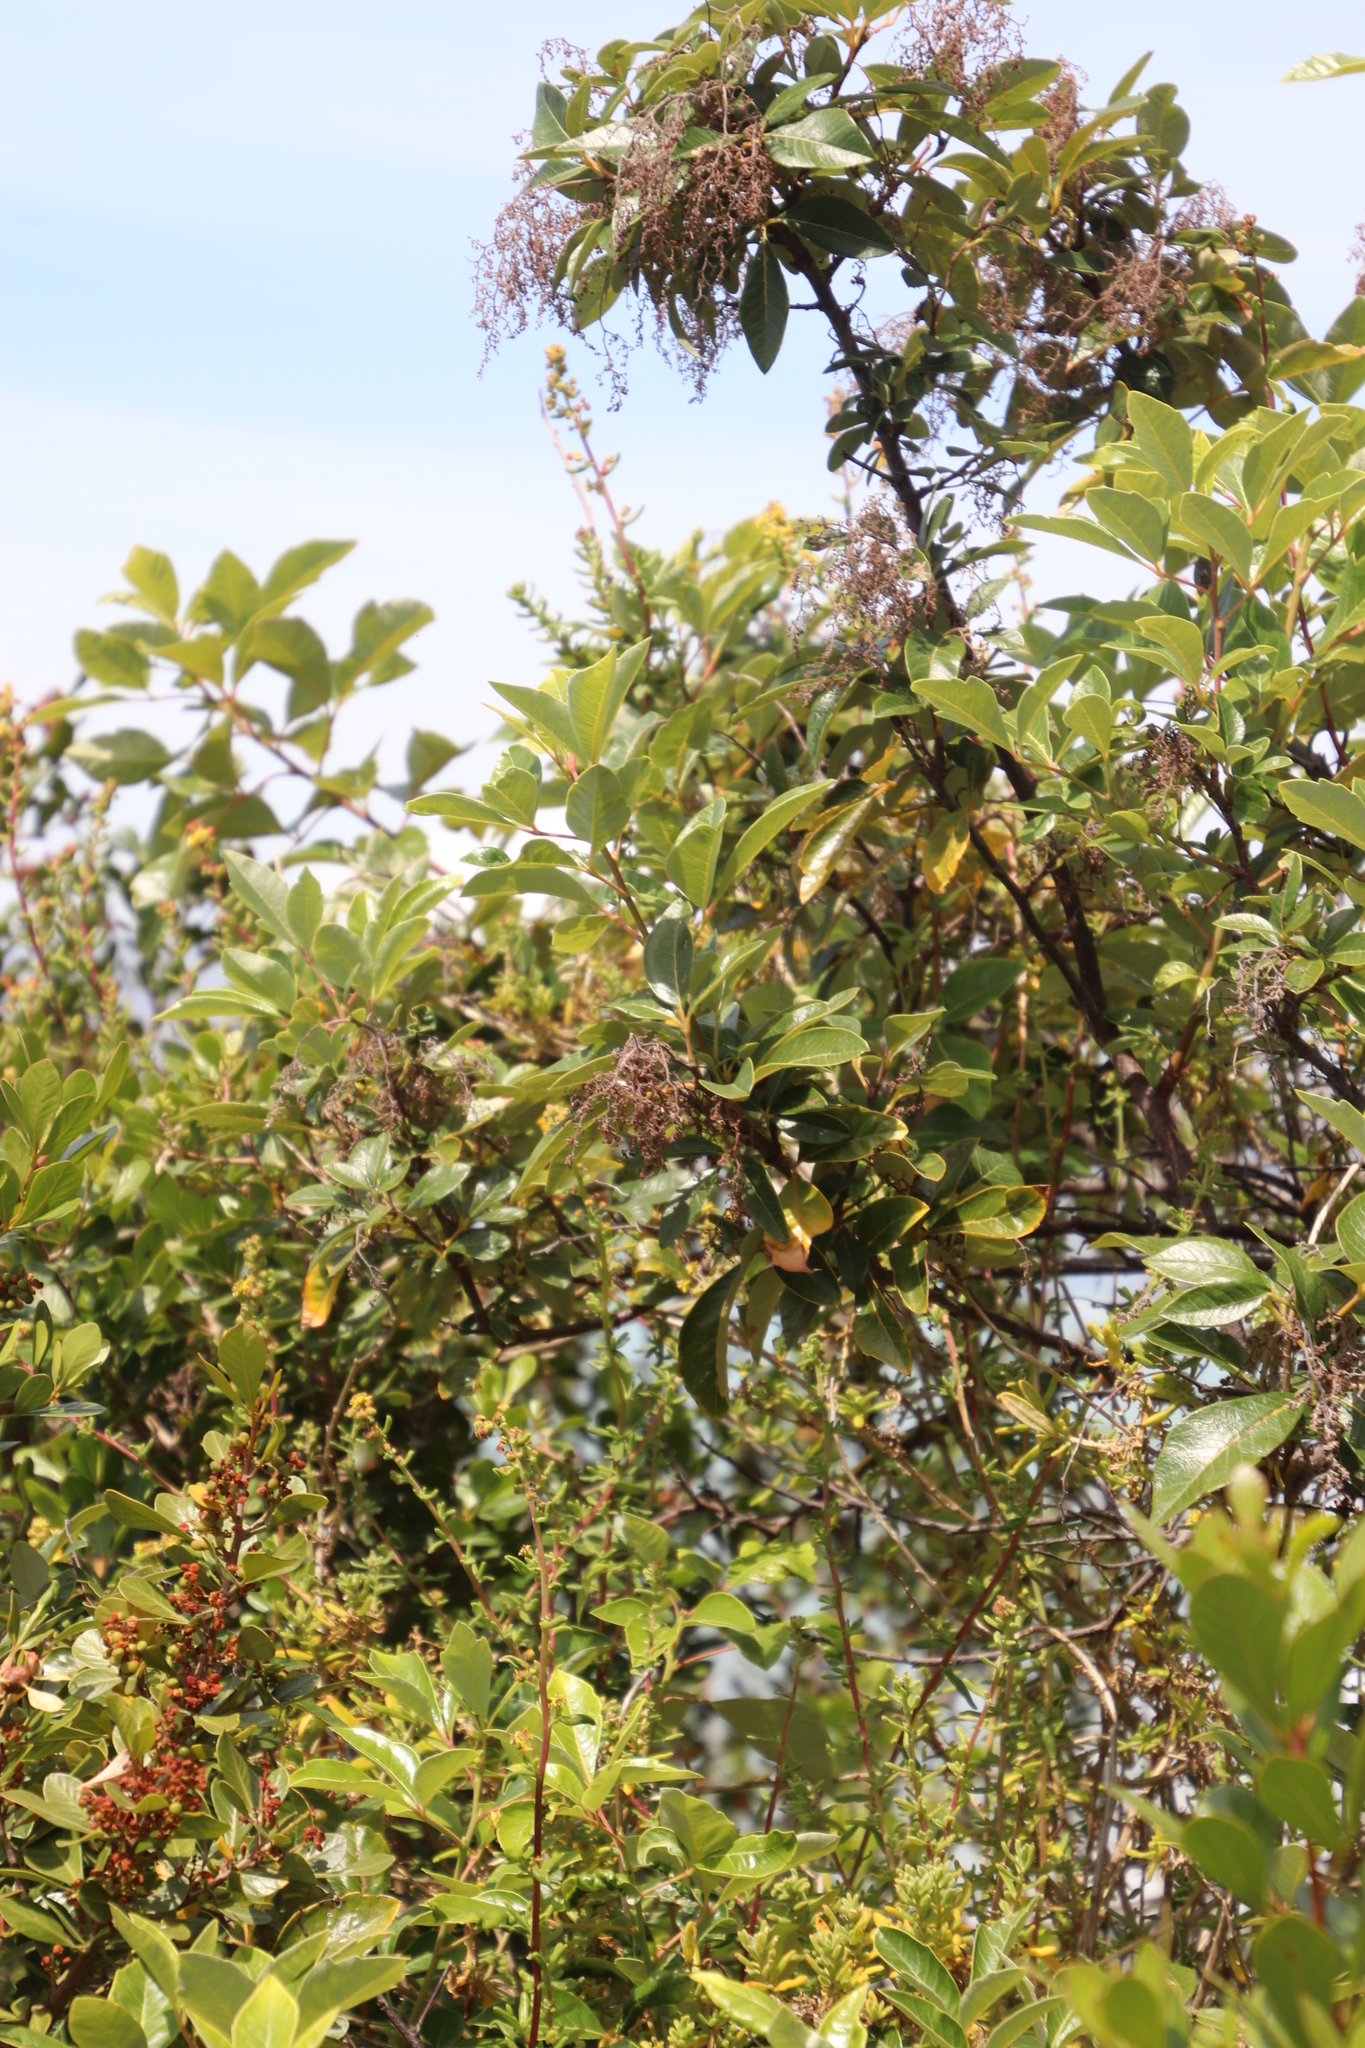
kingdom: Plantae
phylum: Tracheophyta
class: Magnoliopsida
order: Sapindales
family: Anacardiaceae
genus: Searsia
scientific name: Searsia tomentosa
